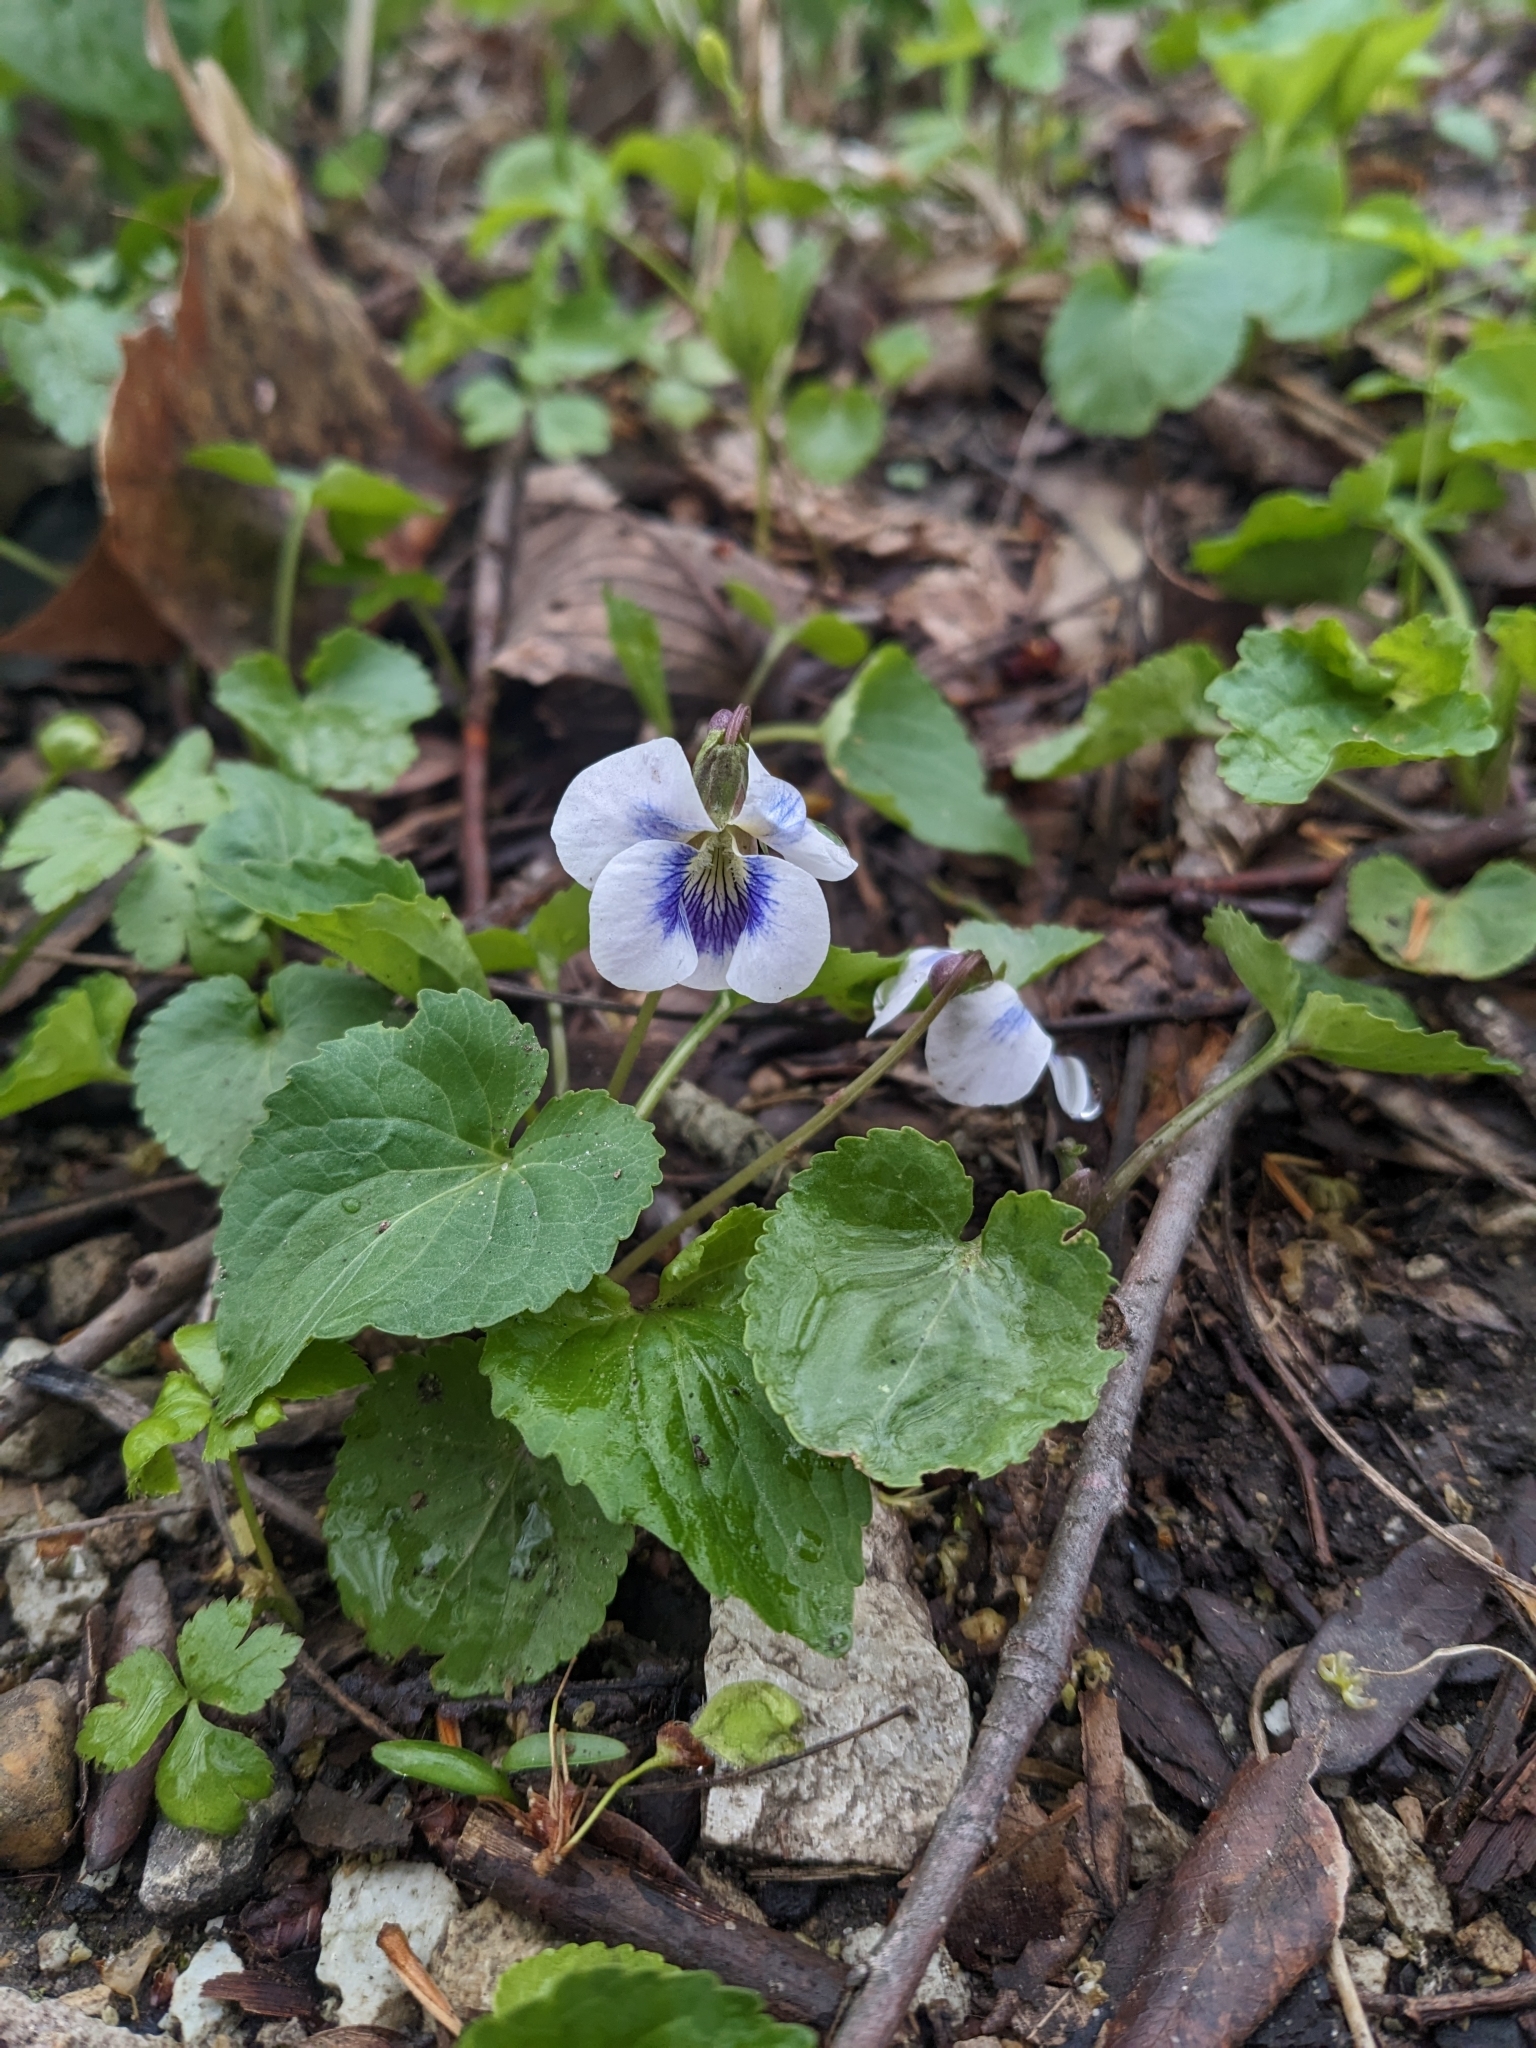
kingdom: Plantae
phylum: Tracheophyta
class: Magnoliopsida
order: Malpighiales
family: Violaceae
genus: Viola
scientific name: Viola sororia
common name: Dooryard violet
